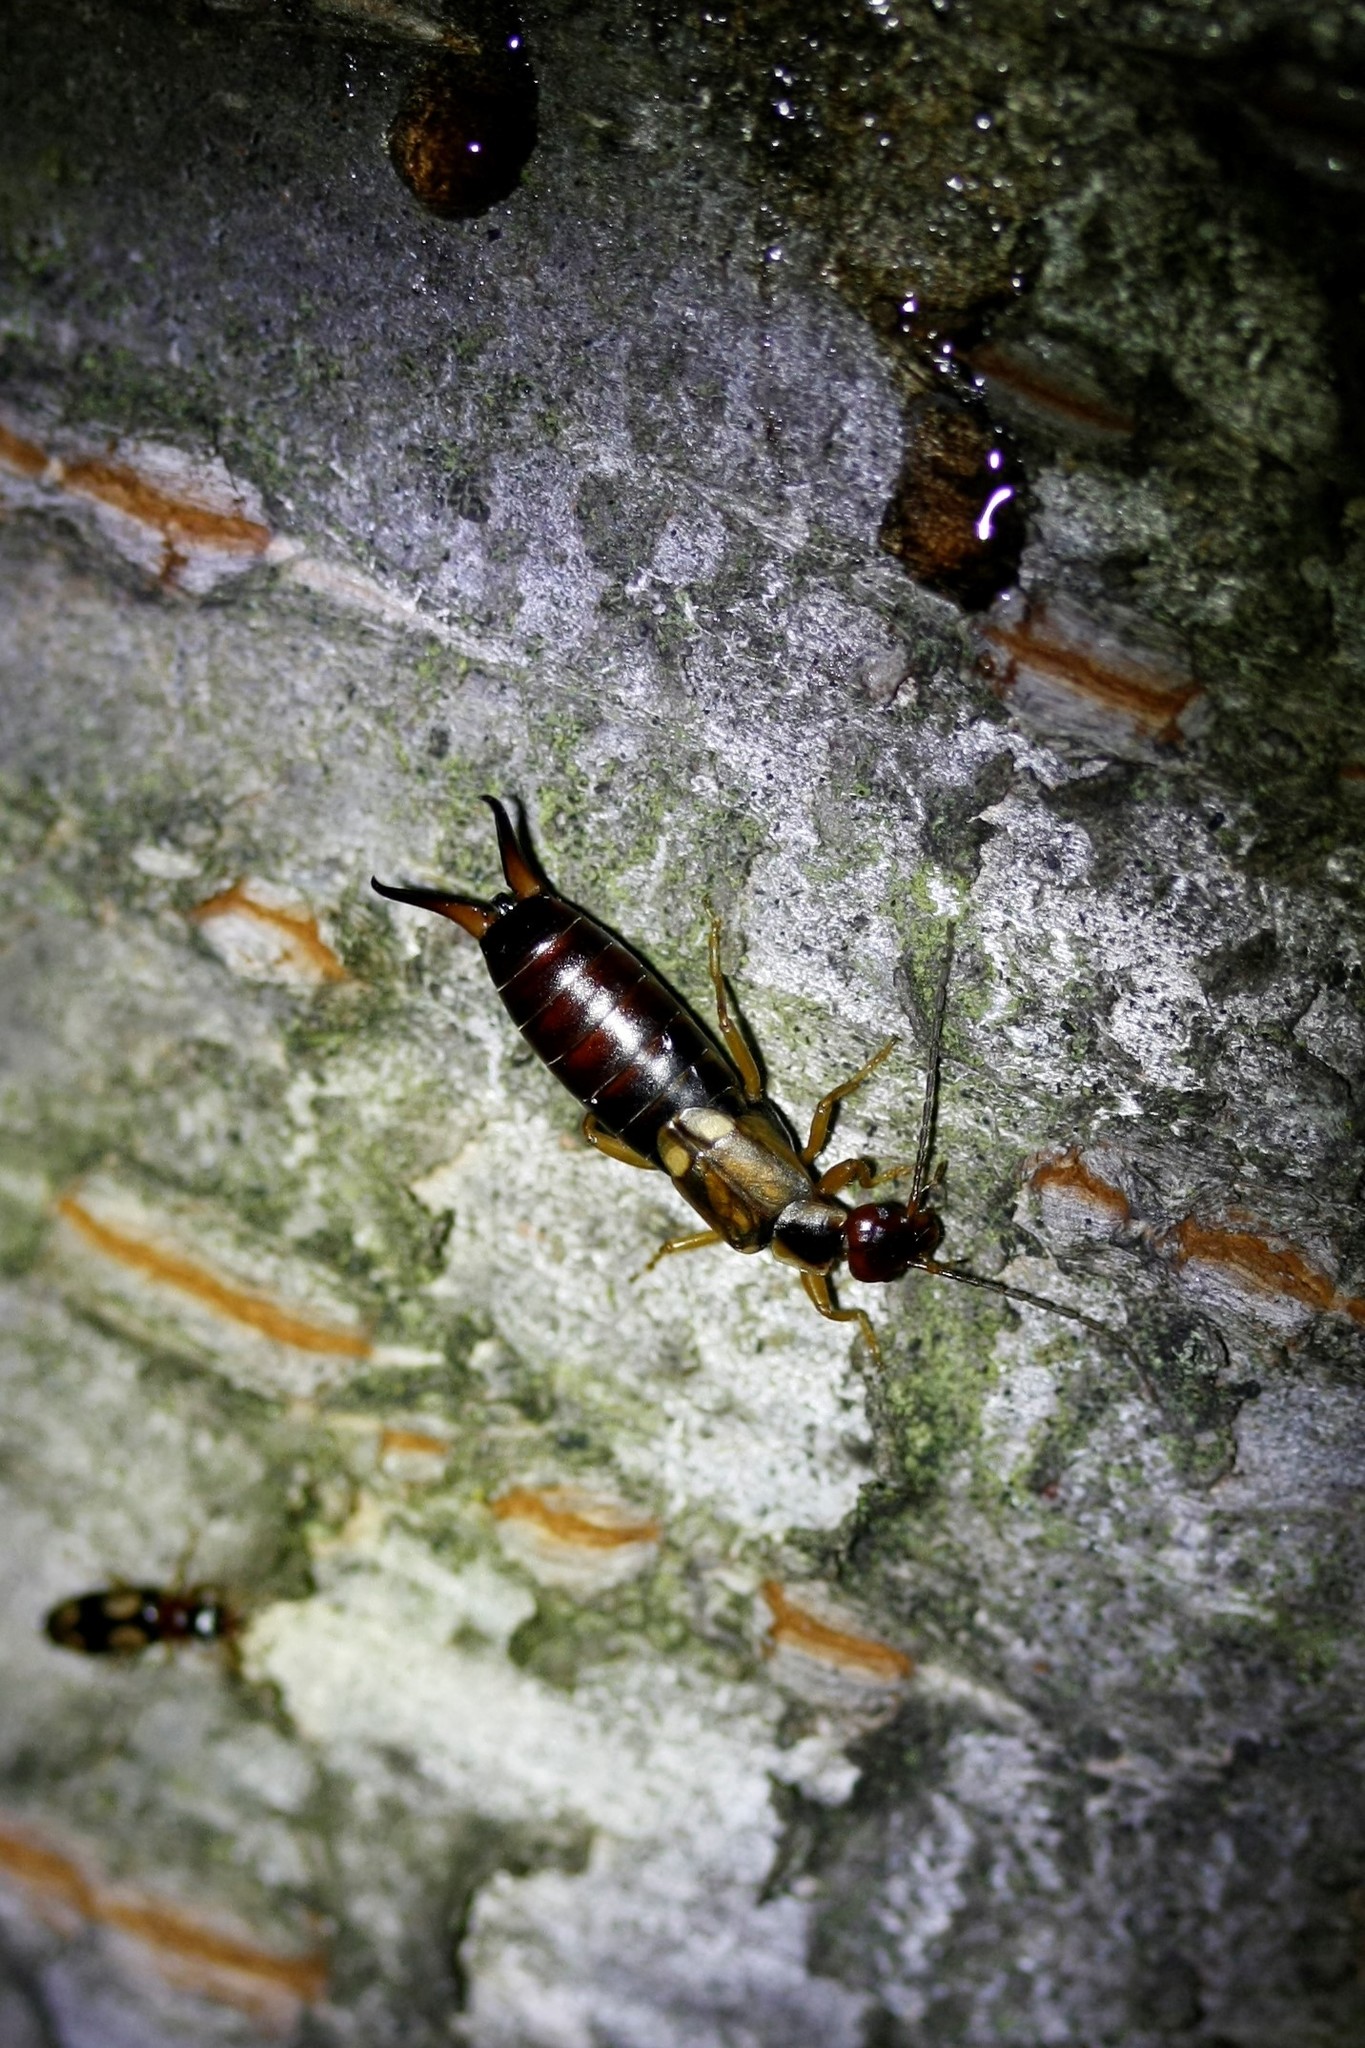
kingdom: Animalia
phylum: Arthropoda
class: Insecta
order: Dermaptera
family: Forficulidae
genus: Forficula
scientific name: Forficula
